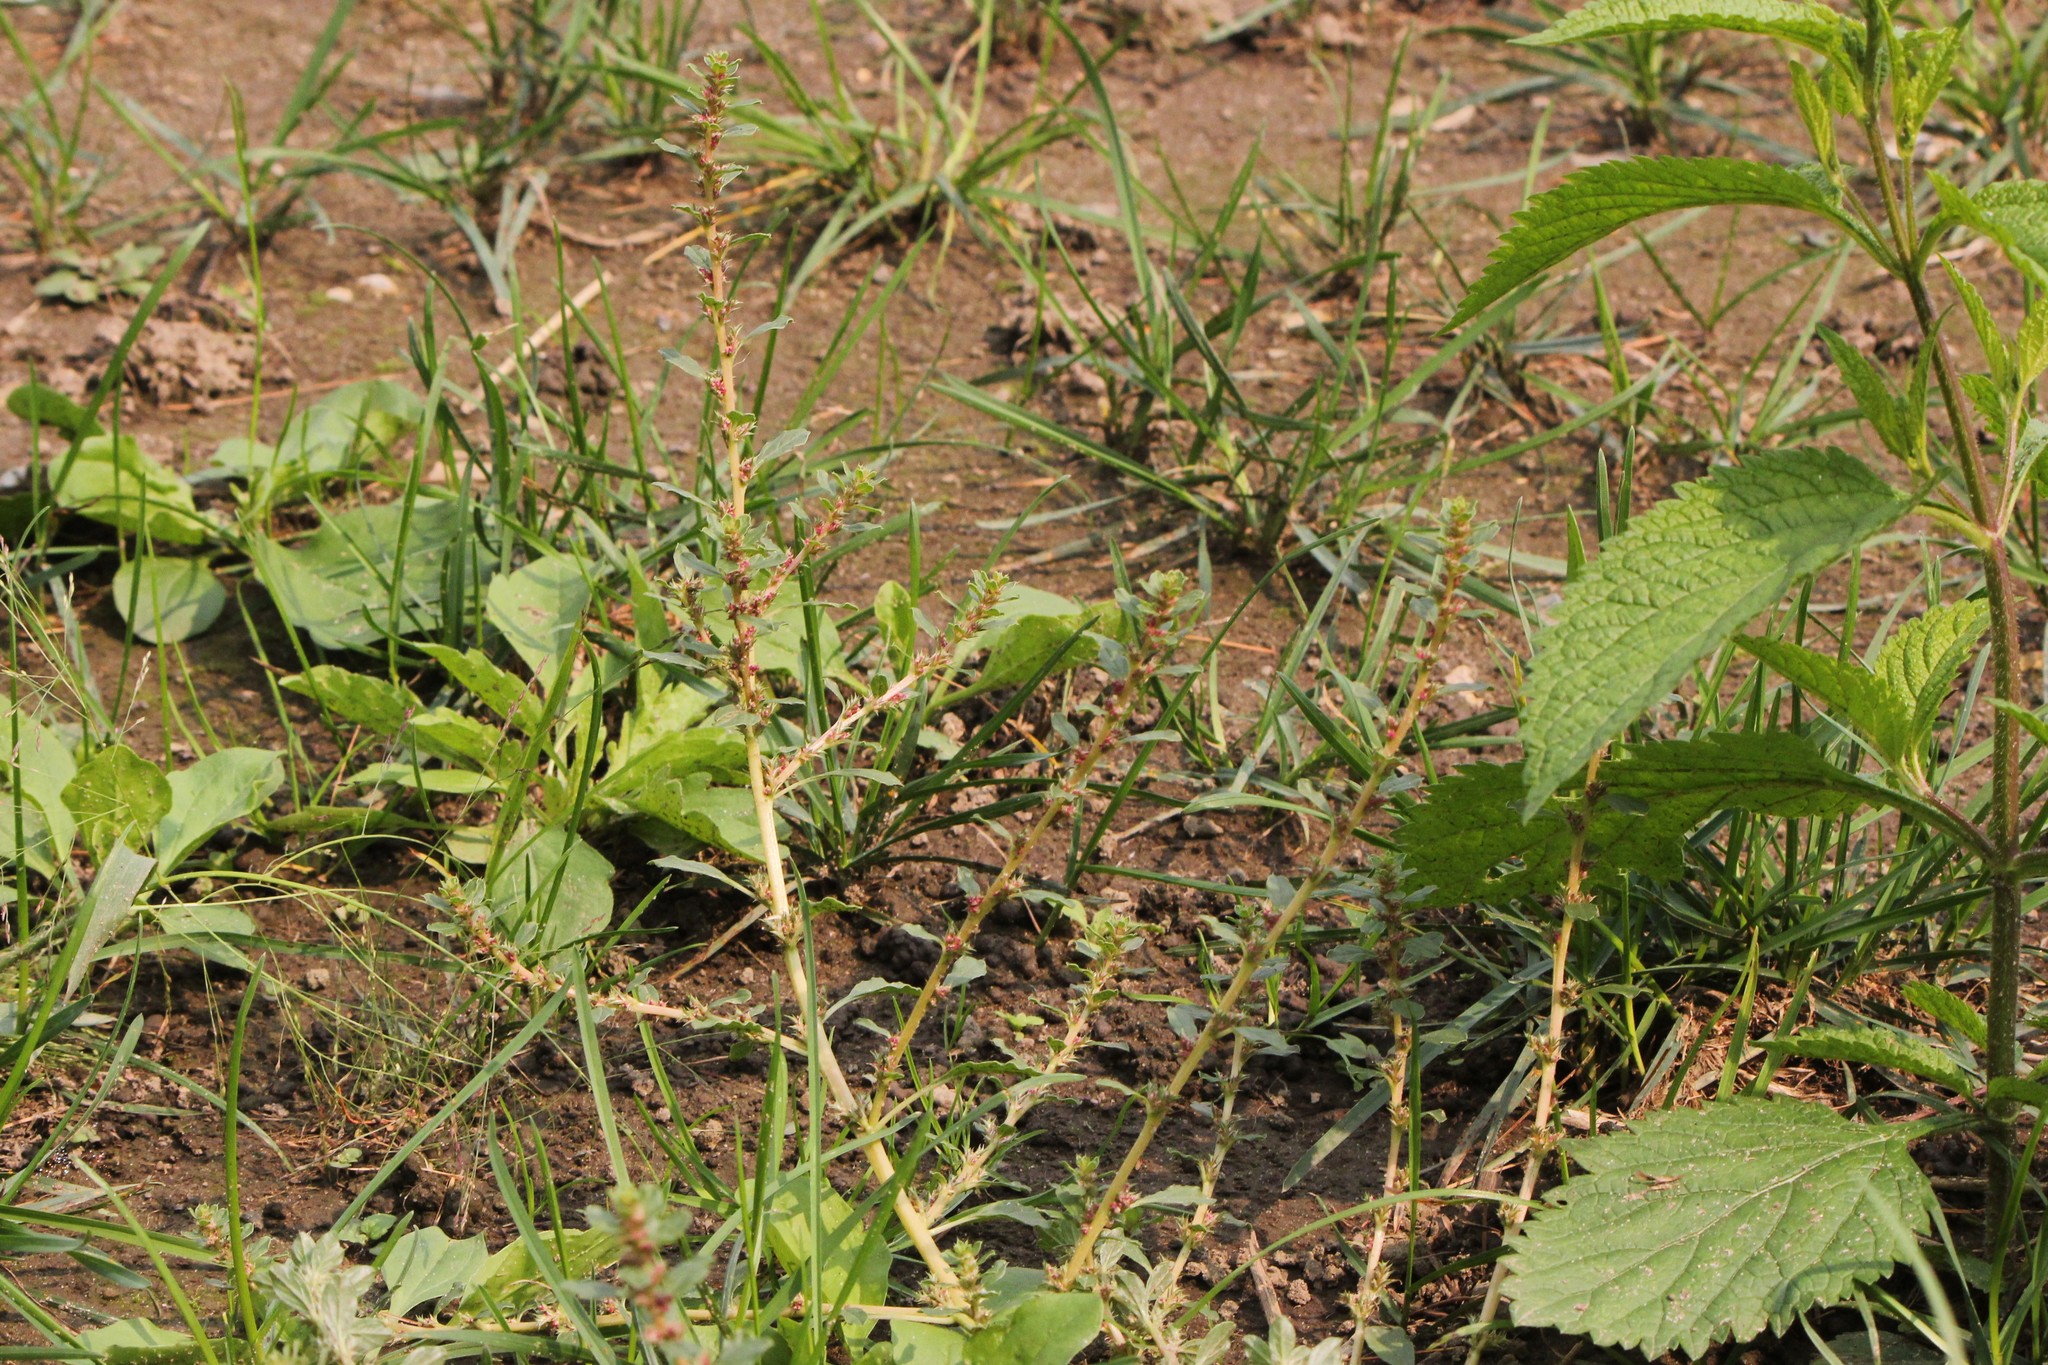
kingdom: Plantae
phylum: Tracheophyta
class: Magnoliopsida
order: Caryophyllales
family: Amaranthaceae
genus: Amaranthus
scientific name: Amaranthus albus
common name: White pigweed
